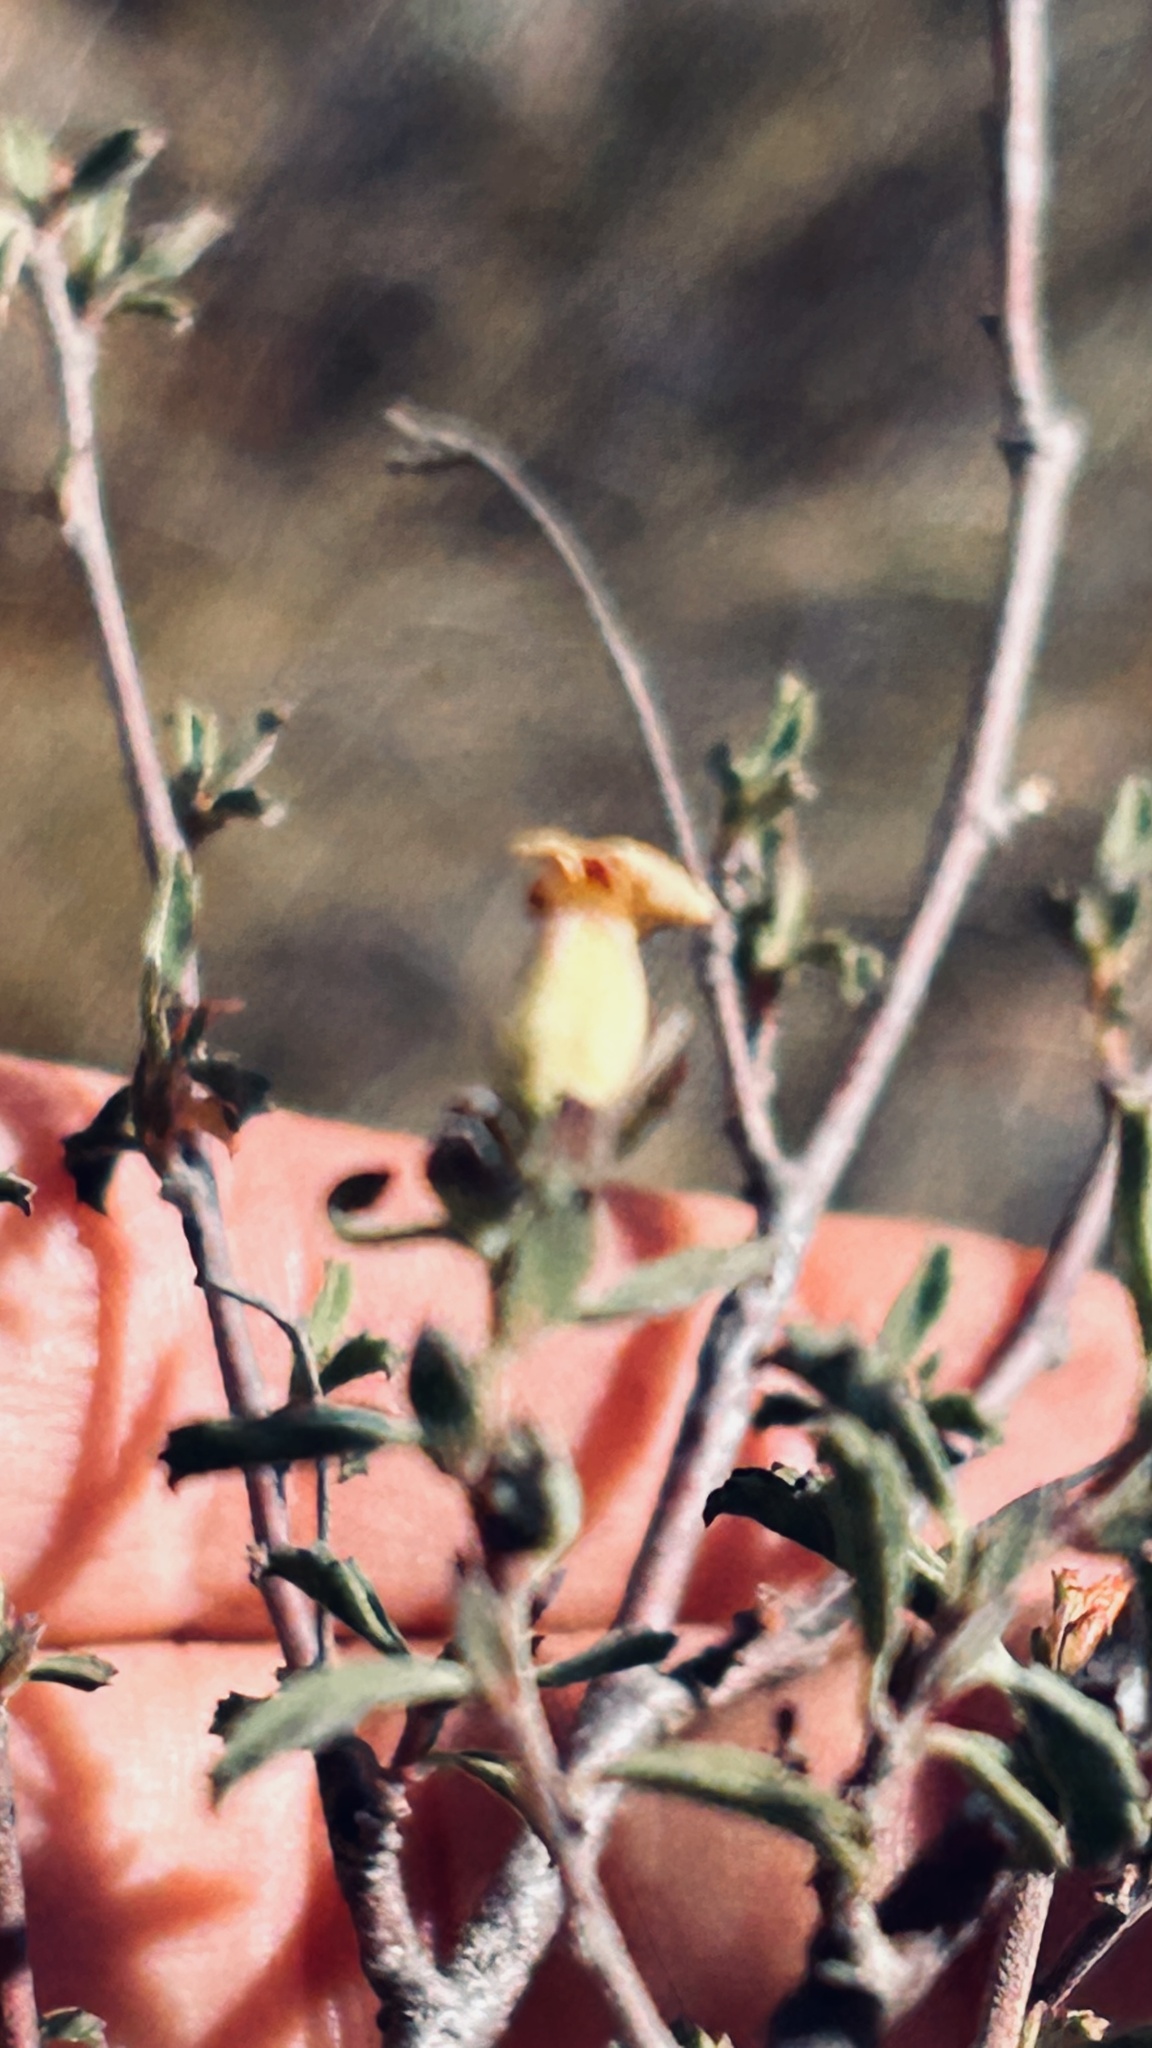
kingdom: Plantae
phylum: Tracheophyta
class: Magnoliopsida
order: Malvales
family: Malvaceae
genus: Hermannia
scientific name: Hermannia hyssopifolia
